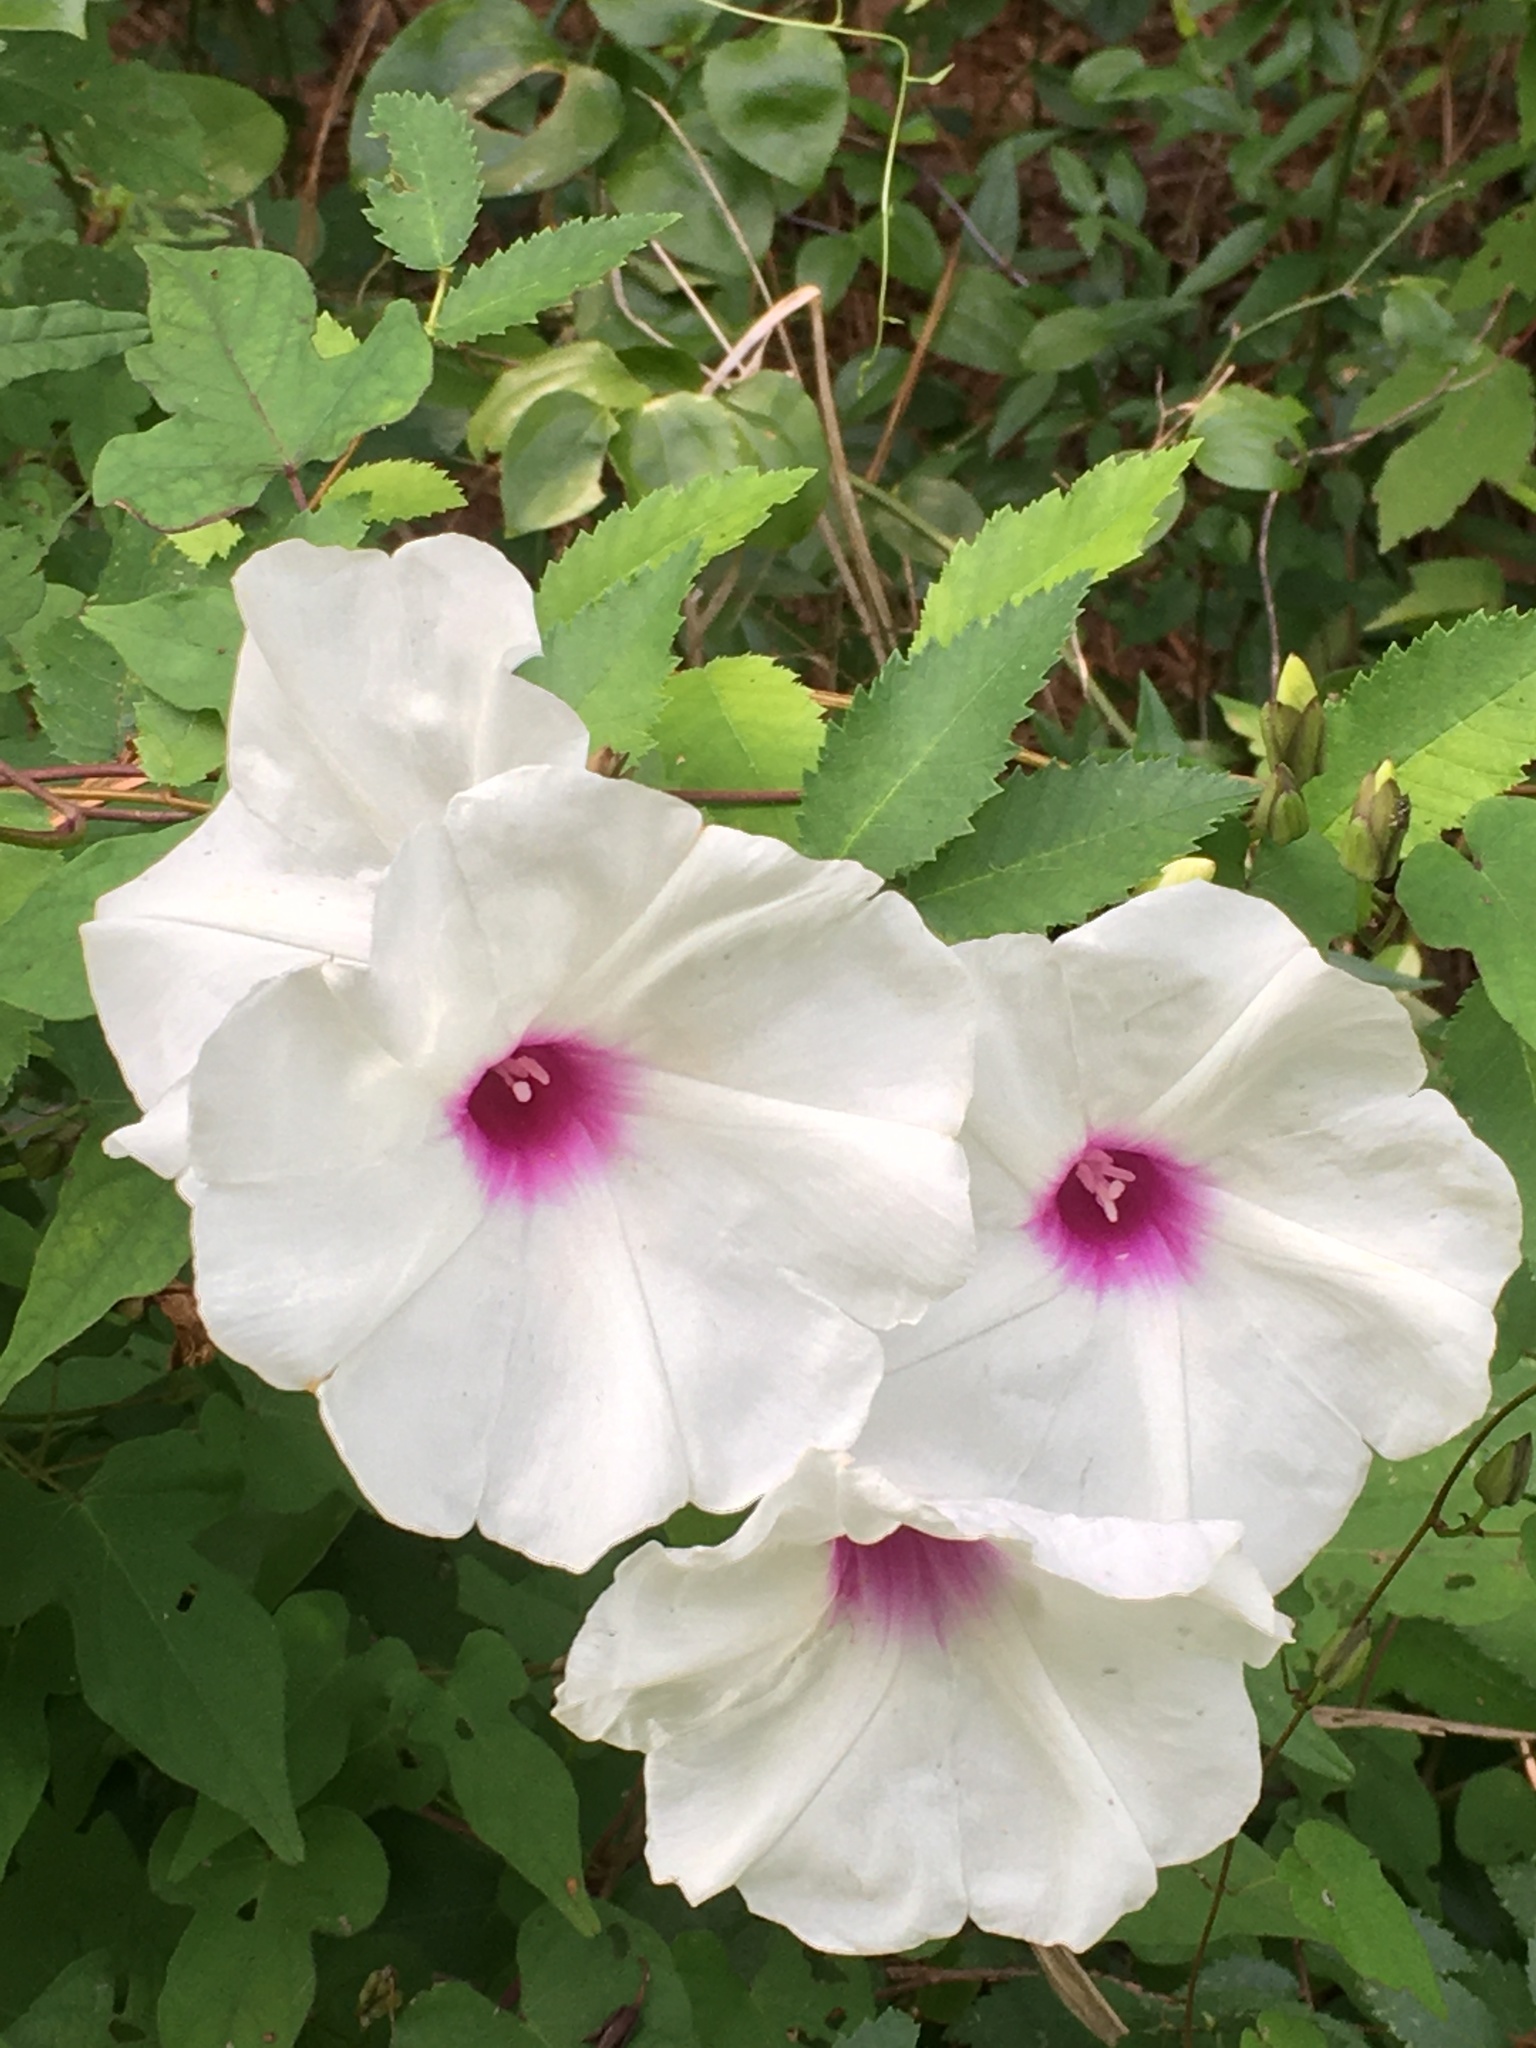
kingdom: Plantae
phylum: Tracheophyta
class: Magnoliopsida
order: Solanales
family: Convolvulaceae
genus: Ipomoea
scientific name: Ipomoea pandurata
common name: Man-of-the-earth
